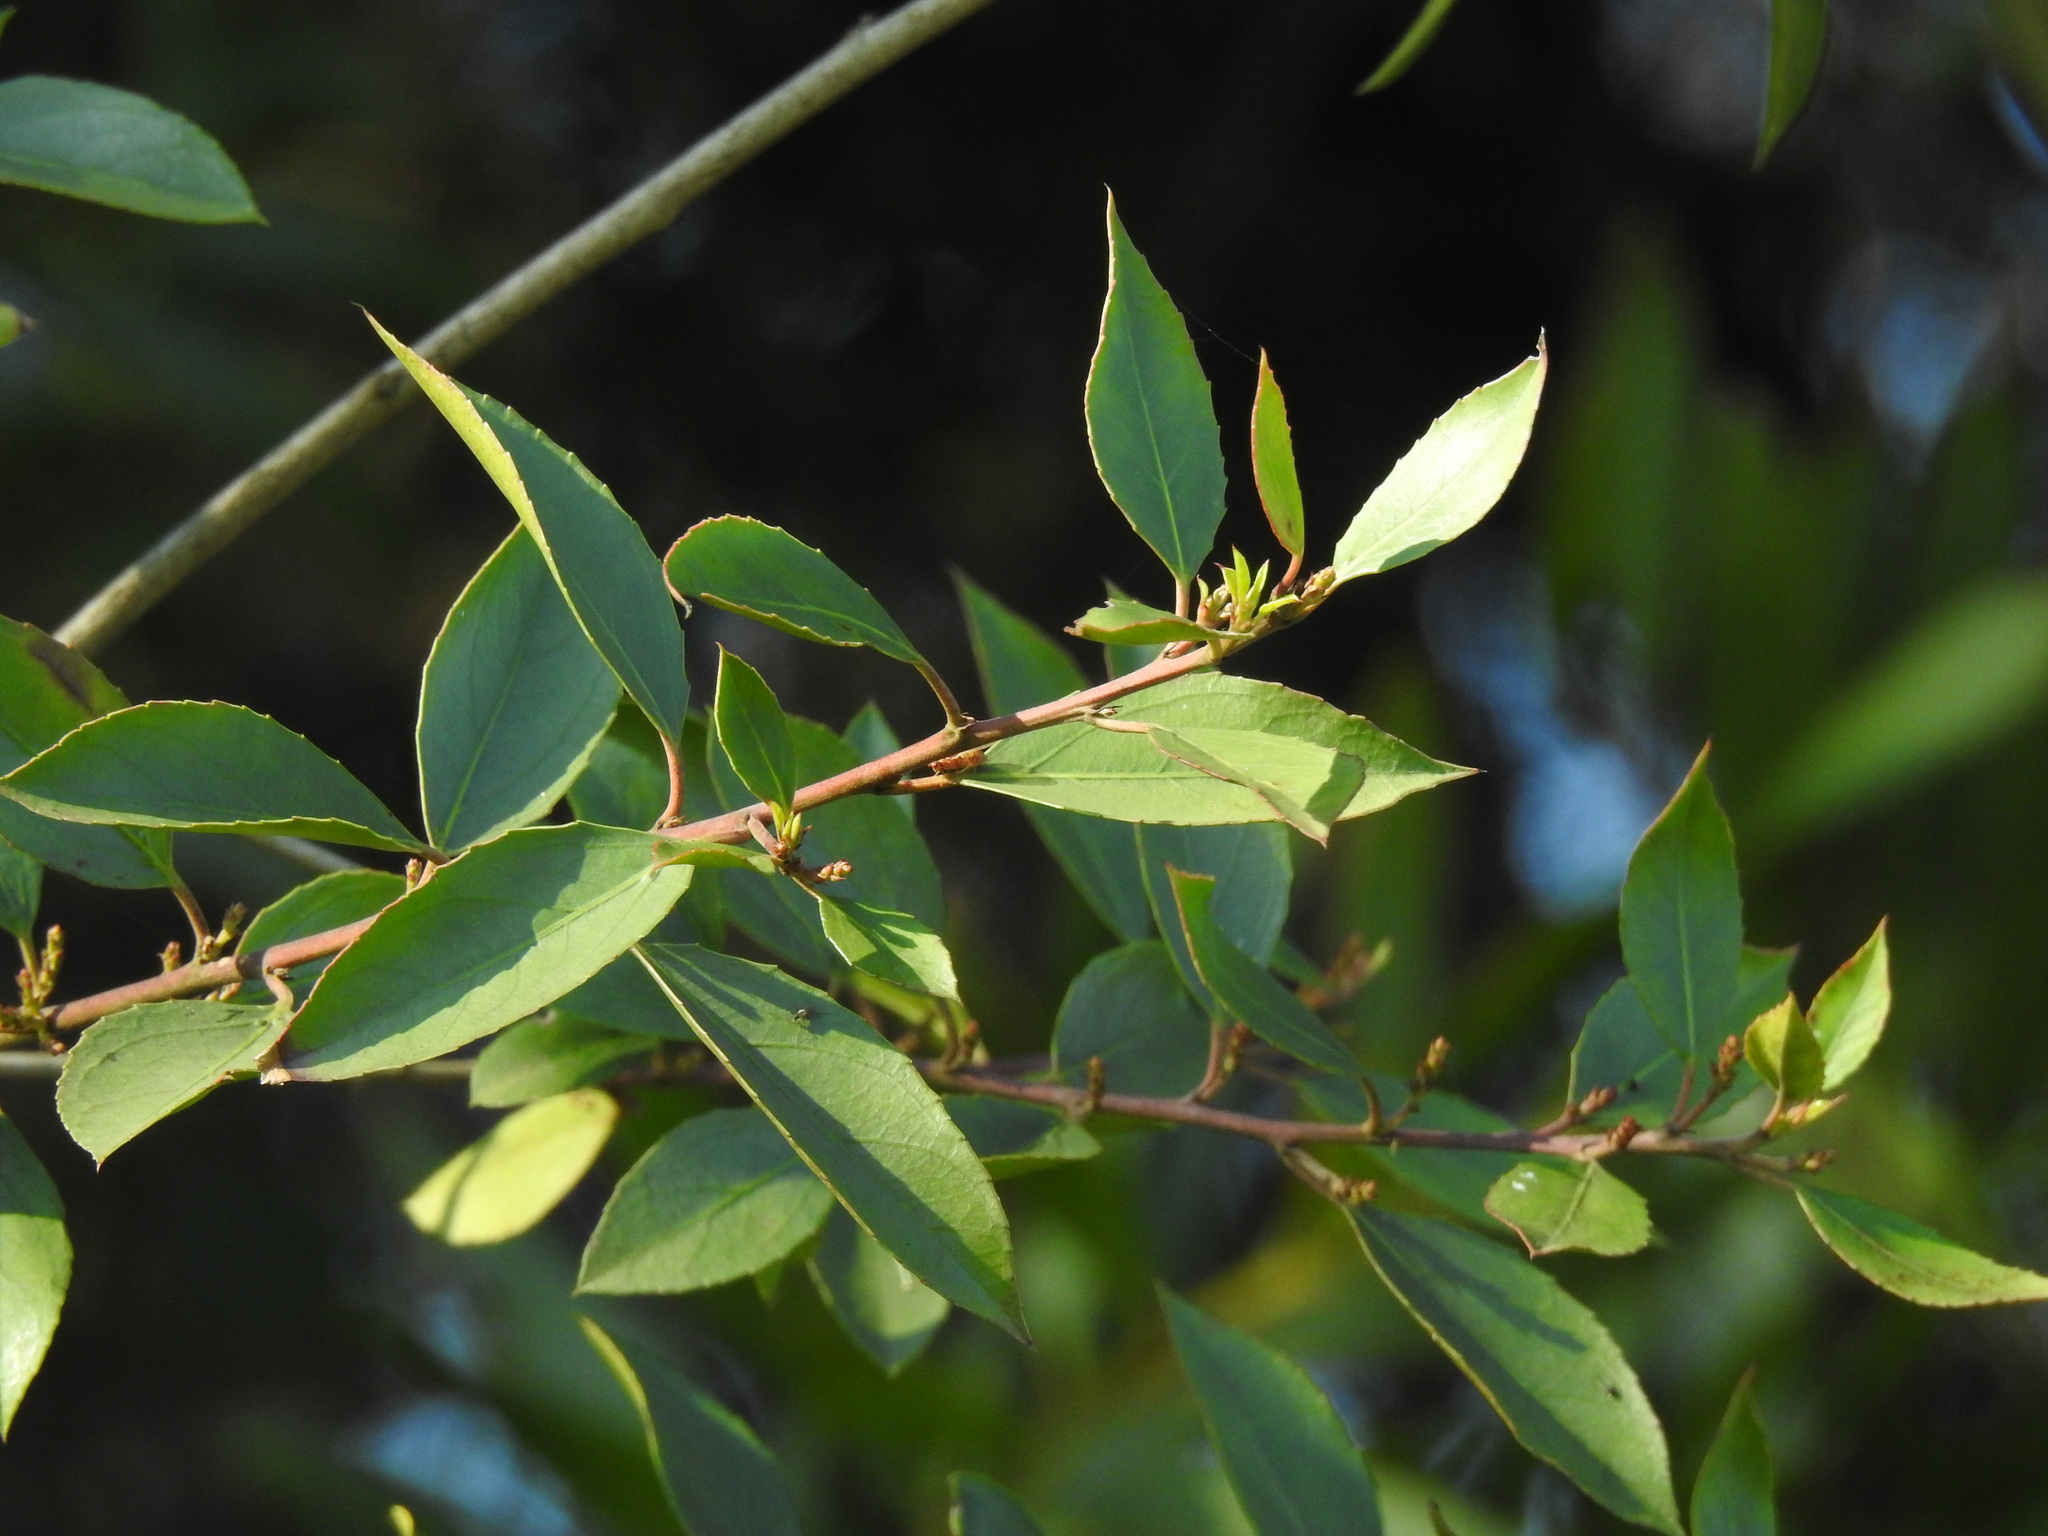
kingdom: Plantae
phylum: Tracheophyta
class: Magnoliopsida
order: Rosales
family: Rhamnaceae
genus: Rhamnus
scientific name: Rhamnus alaternus
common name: Mediterranean buckthorn
